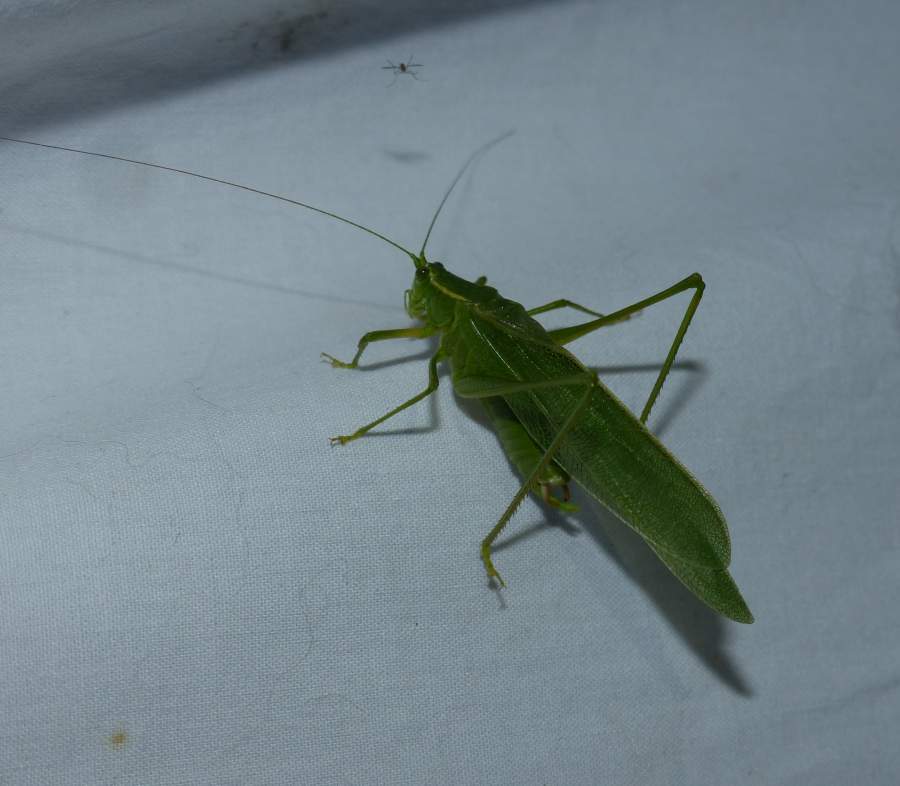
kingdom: Animalia
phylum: Arthropoda
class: Insecta
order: Orthoptera
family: Tettigoniidae
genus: Scudderia
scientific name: Scudderia septentrionalis
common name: Northern bush-katydid
